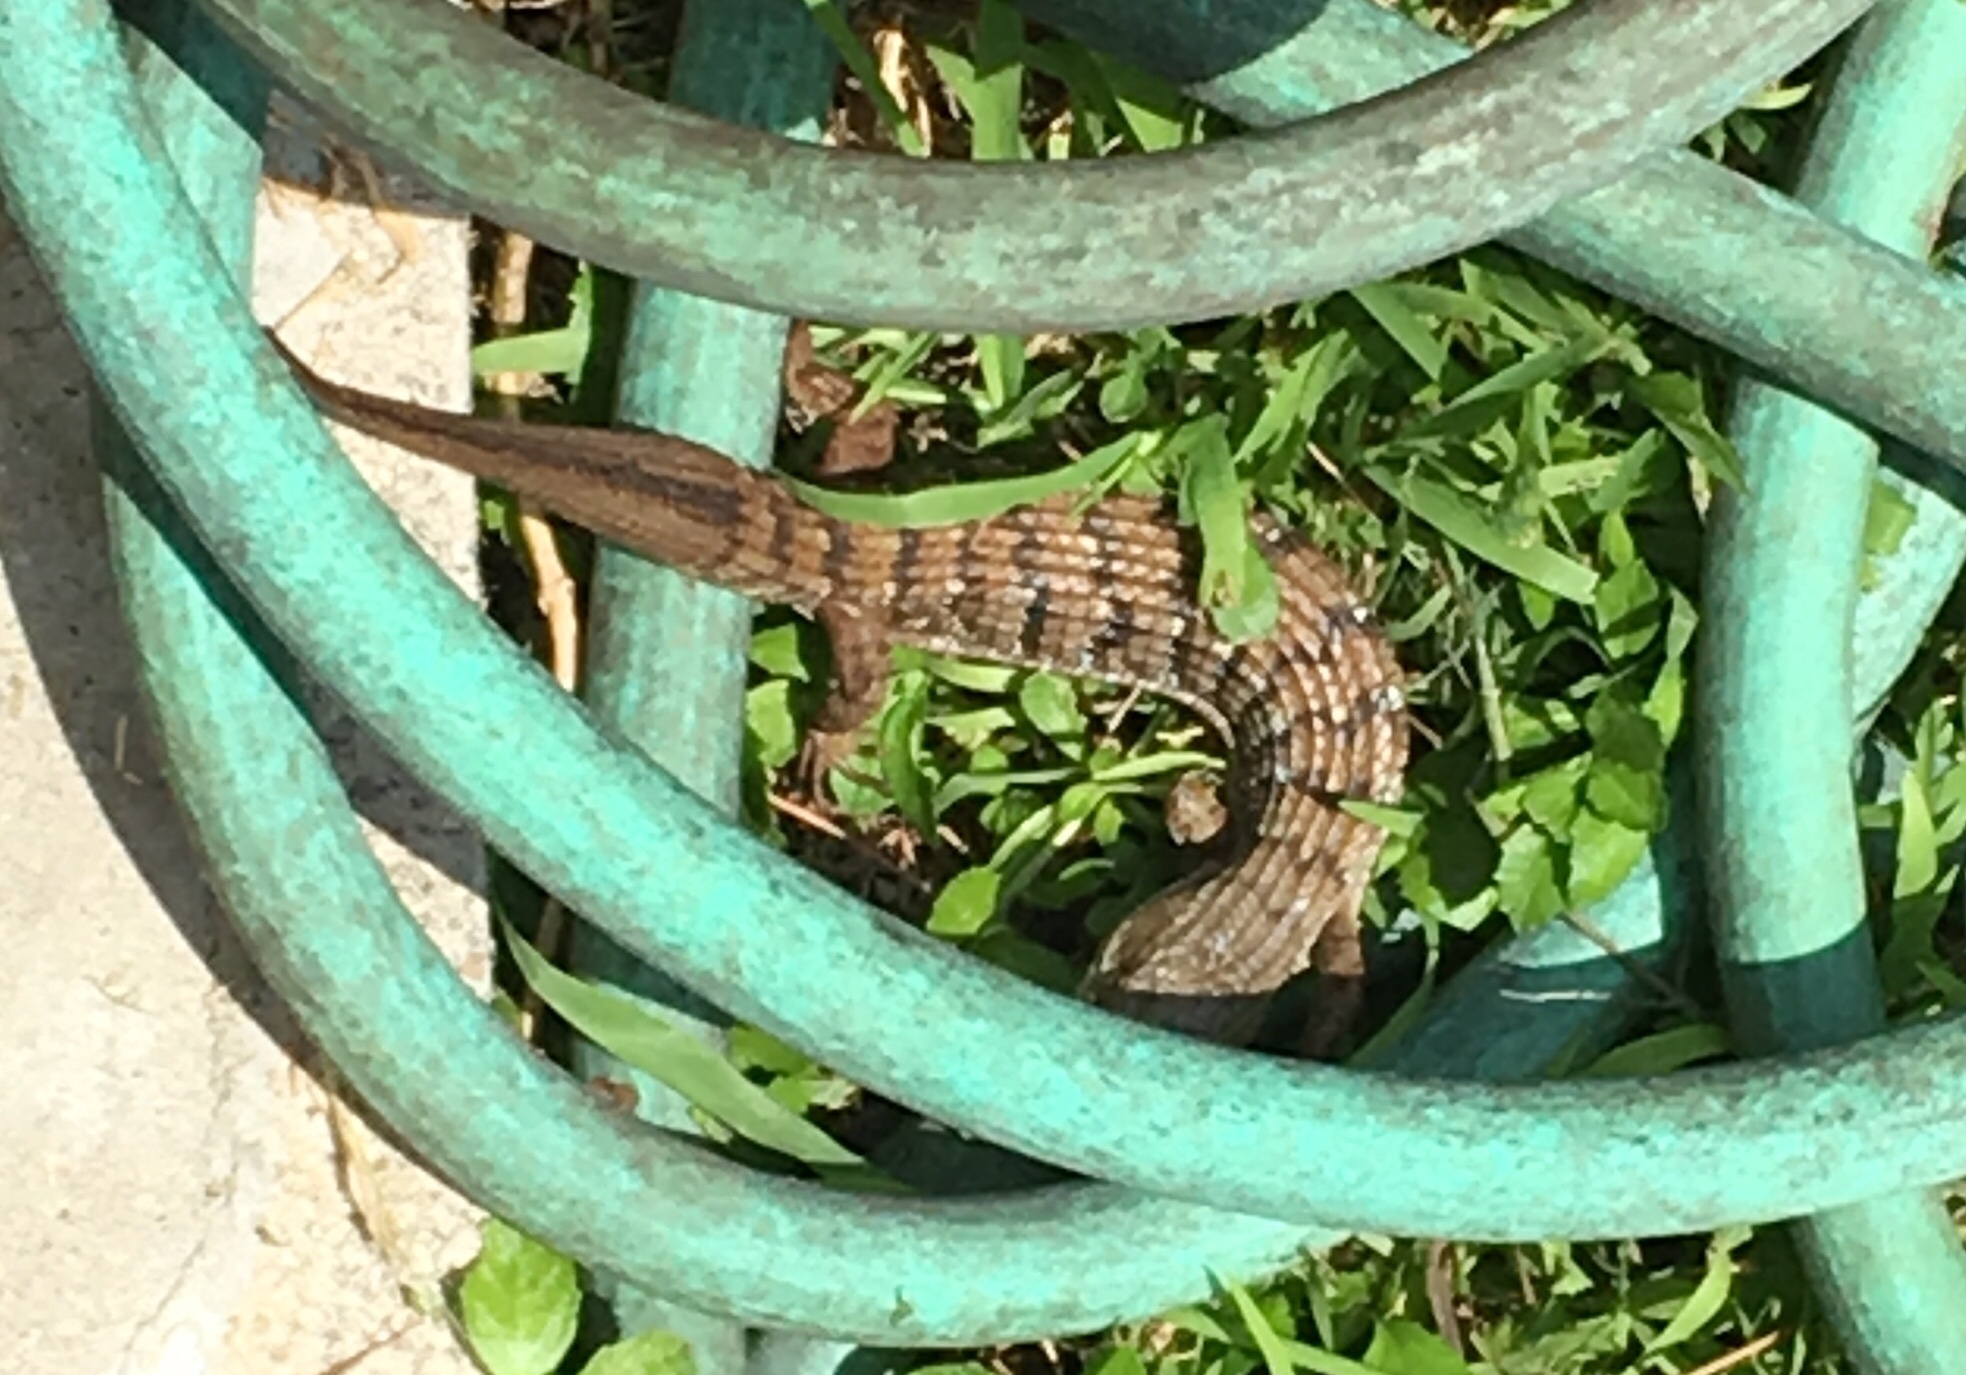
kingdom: Animalia
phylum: Chordata
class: Squamata
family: Anguidae
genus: Elgaria
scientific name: Elgaria multicarinata
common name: Southern alligator lizard
